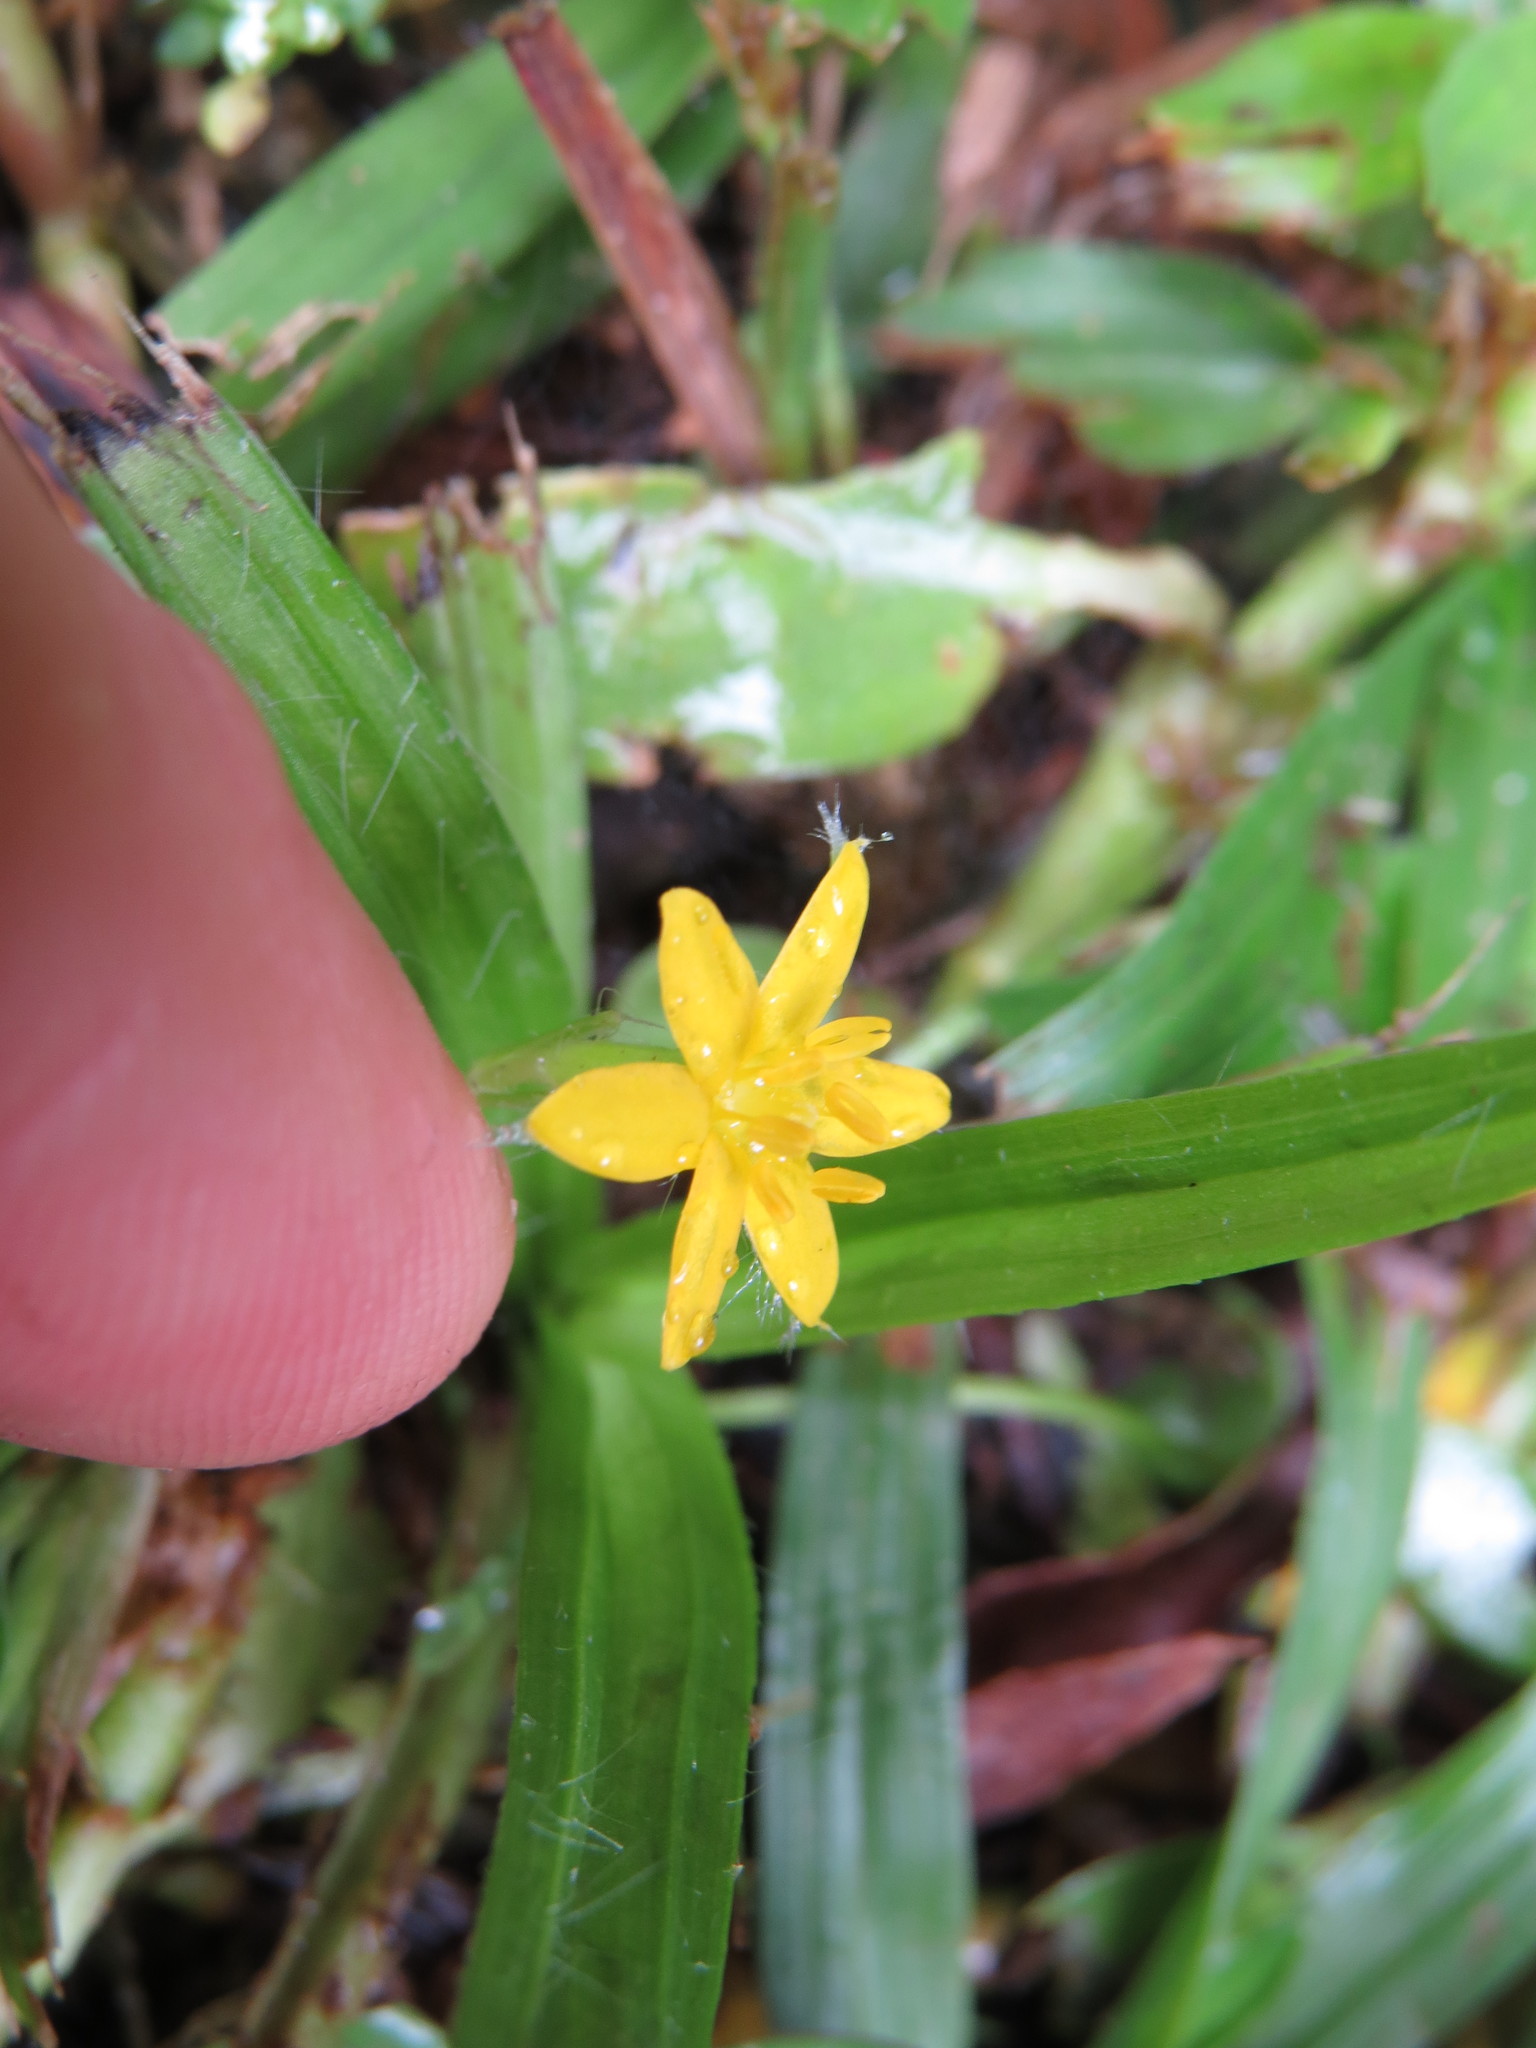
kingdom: Plantae
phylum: Tracheophyta
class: Liliopsida
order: Asparagales
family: Hypoxidaceae
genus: Hypoxis
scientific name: Hypoxis decumbens
